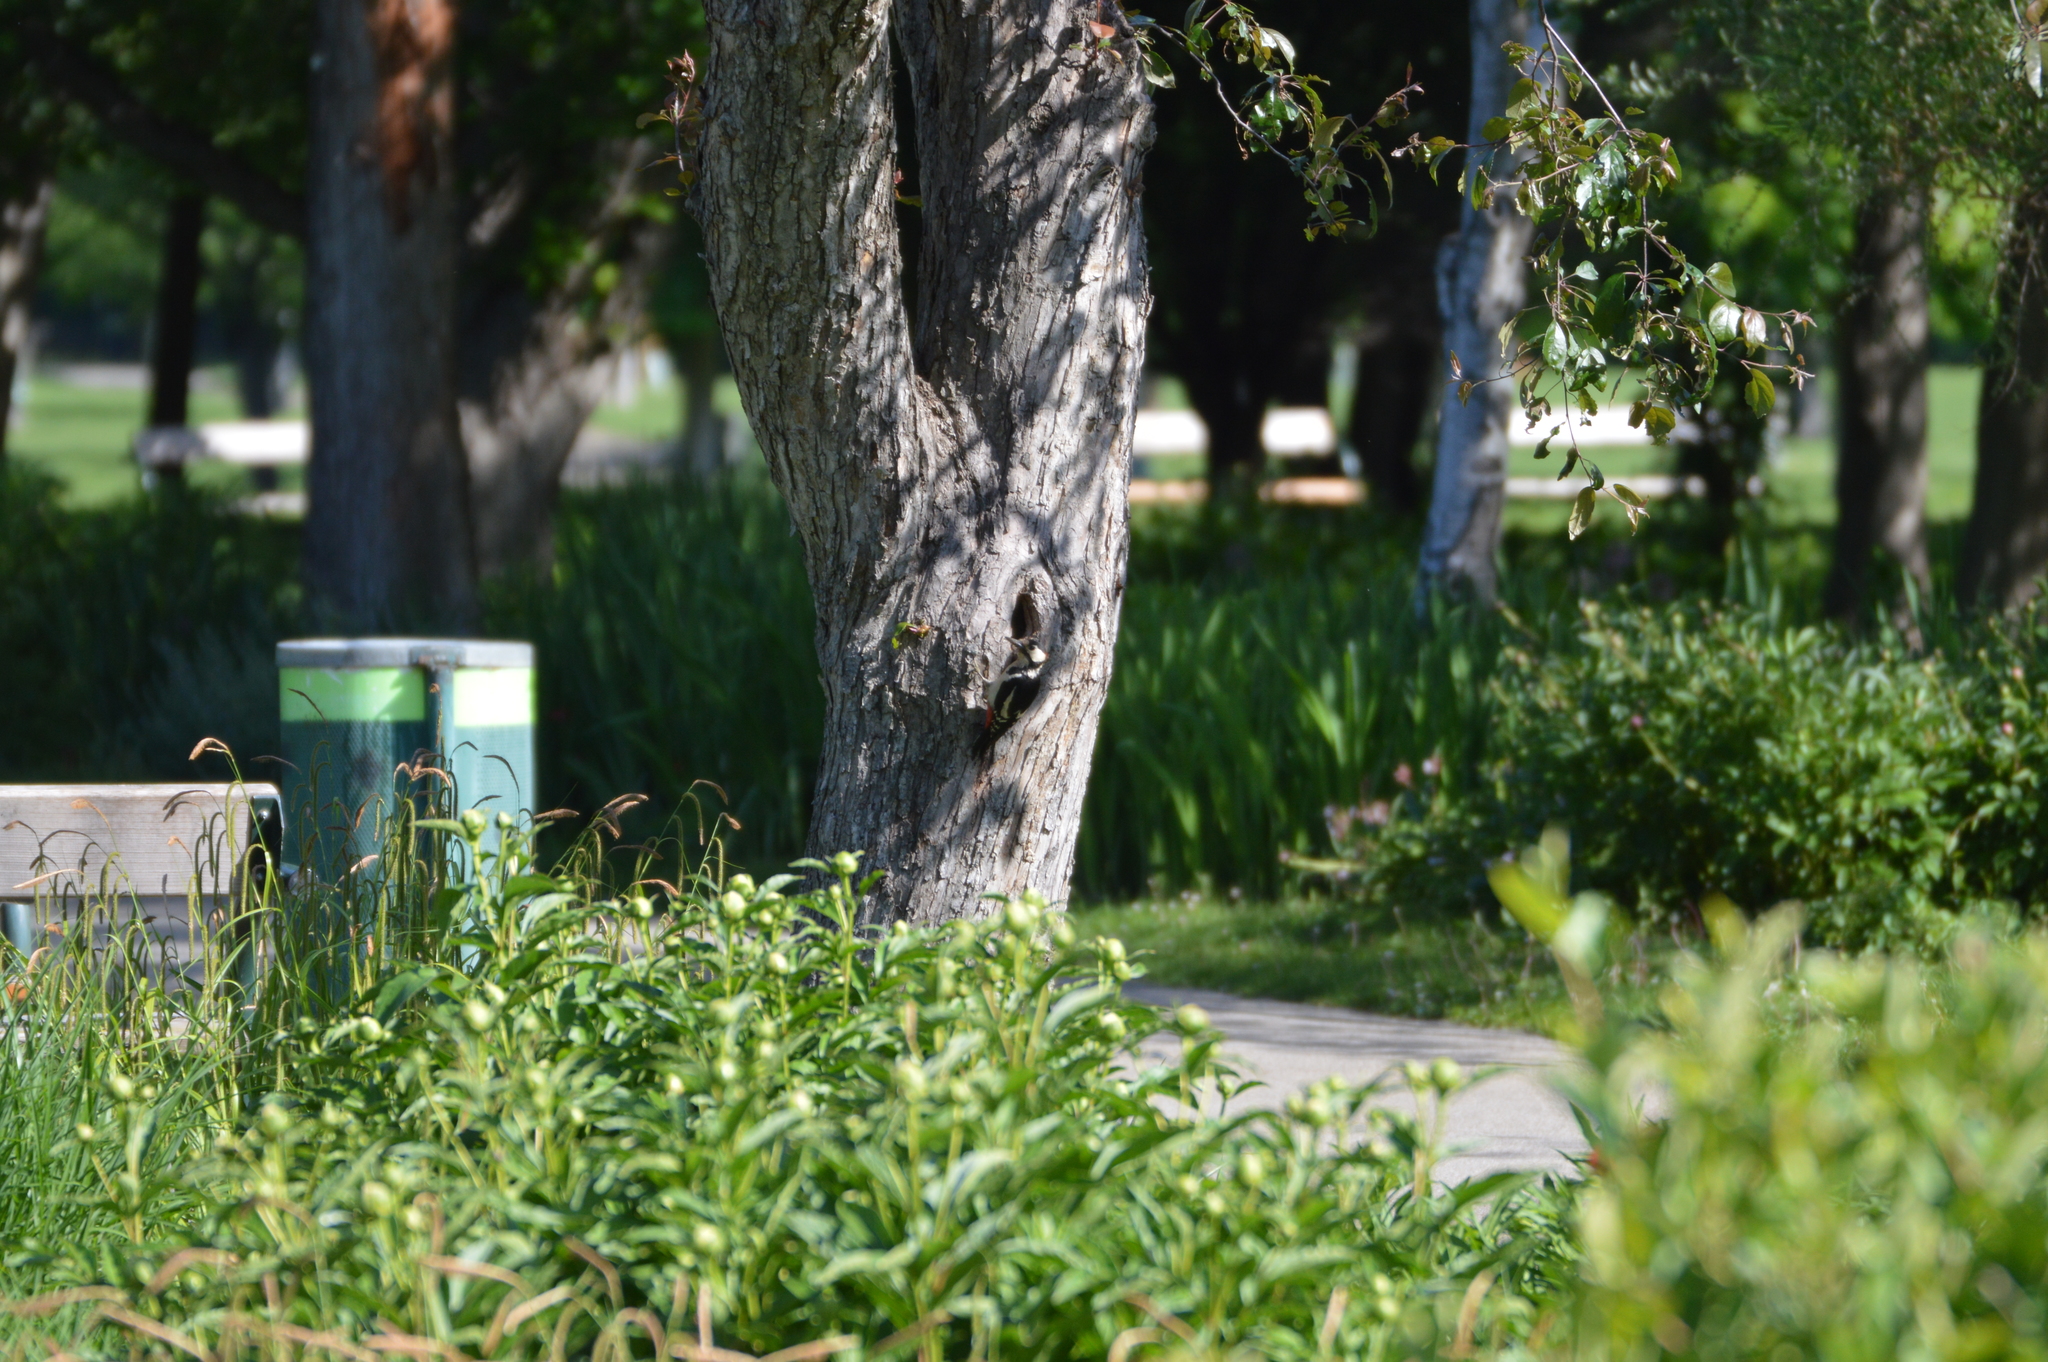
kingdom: Animalia
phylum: Chordata
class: Aves
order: Piciformes
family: Picidae
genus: Dendrocopos
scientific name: Dendrocopos major
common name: Great spotted woodpecker
